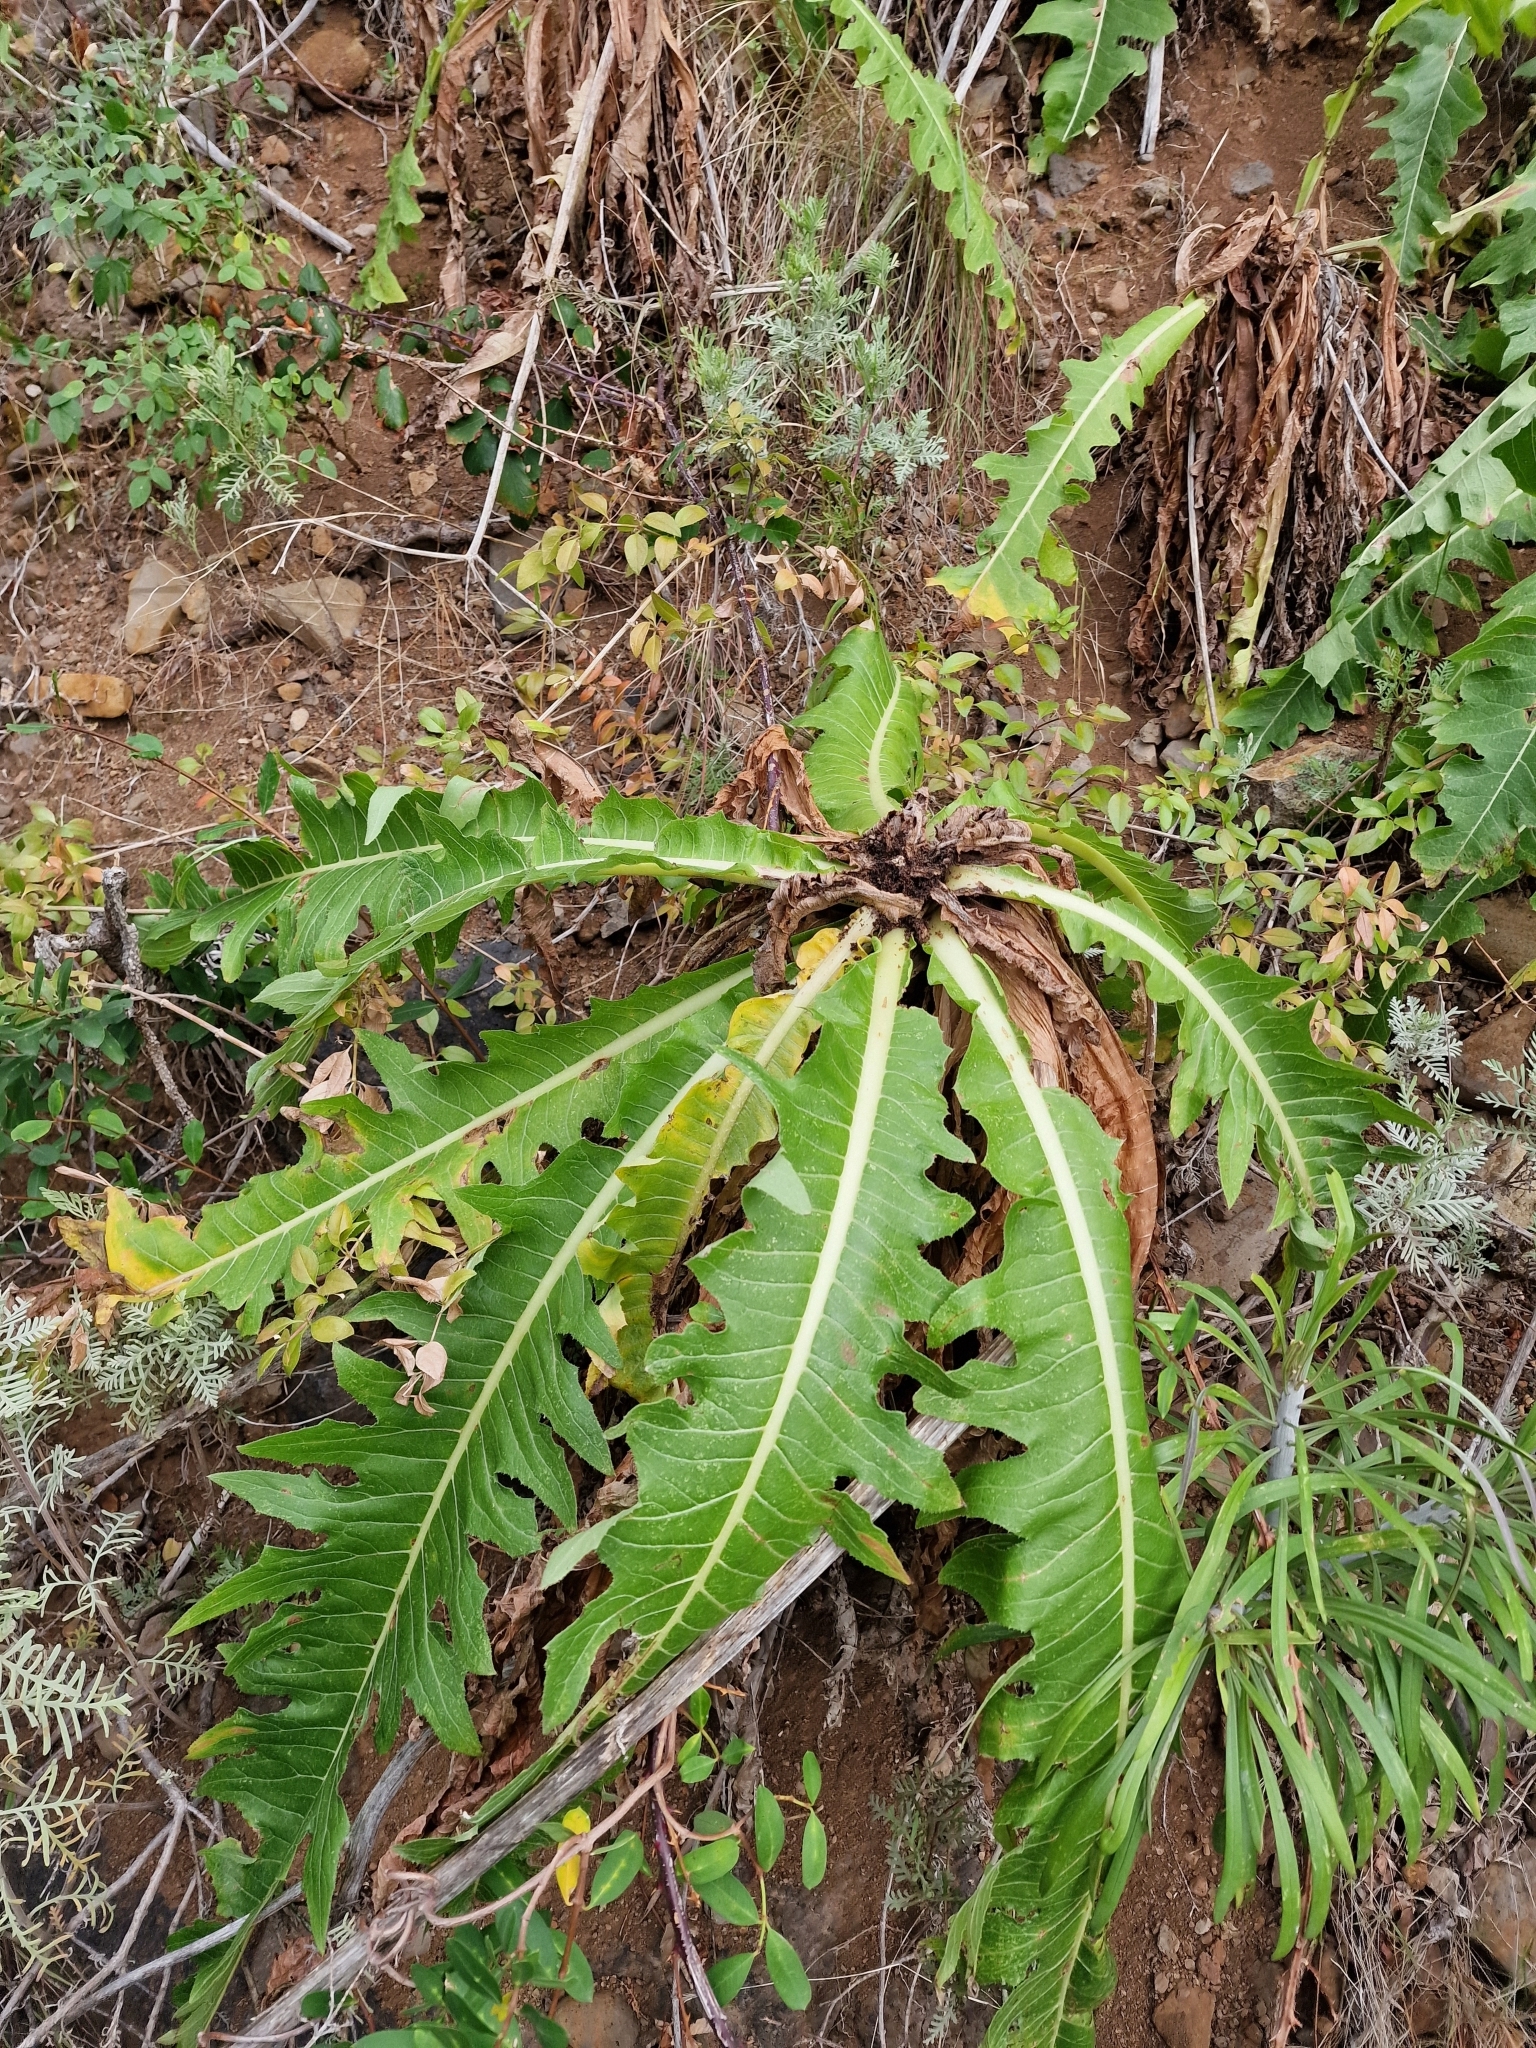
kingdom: Plantae
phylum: Tracheophyta
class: Magnoliopsida
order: Asterales
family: Asteraceae
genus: Sonchus
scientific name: Sonchus acaulis
